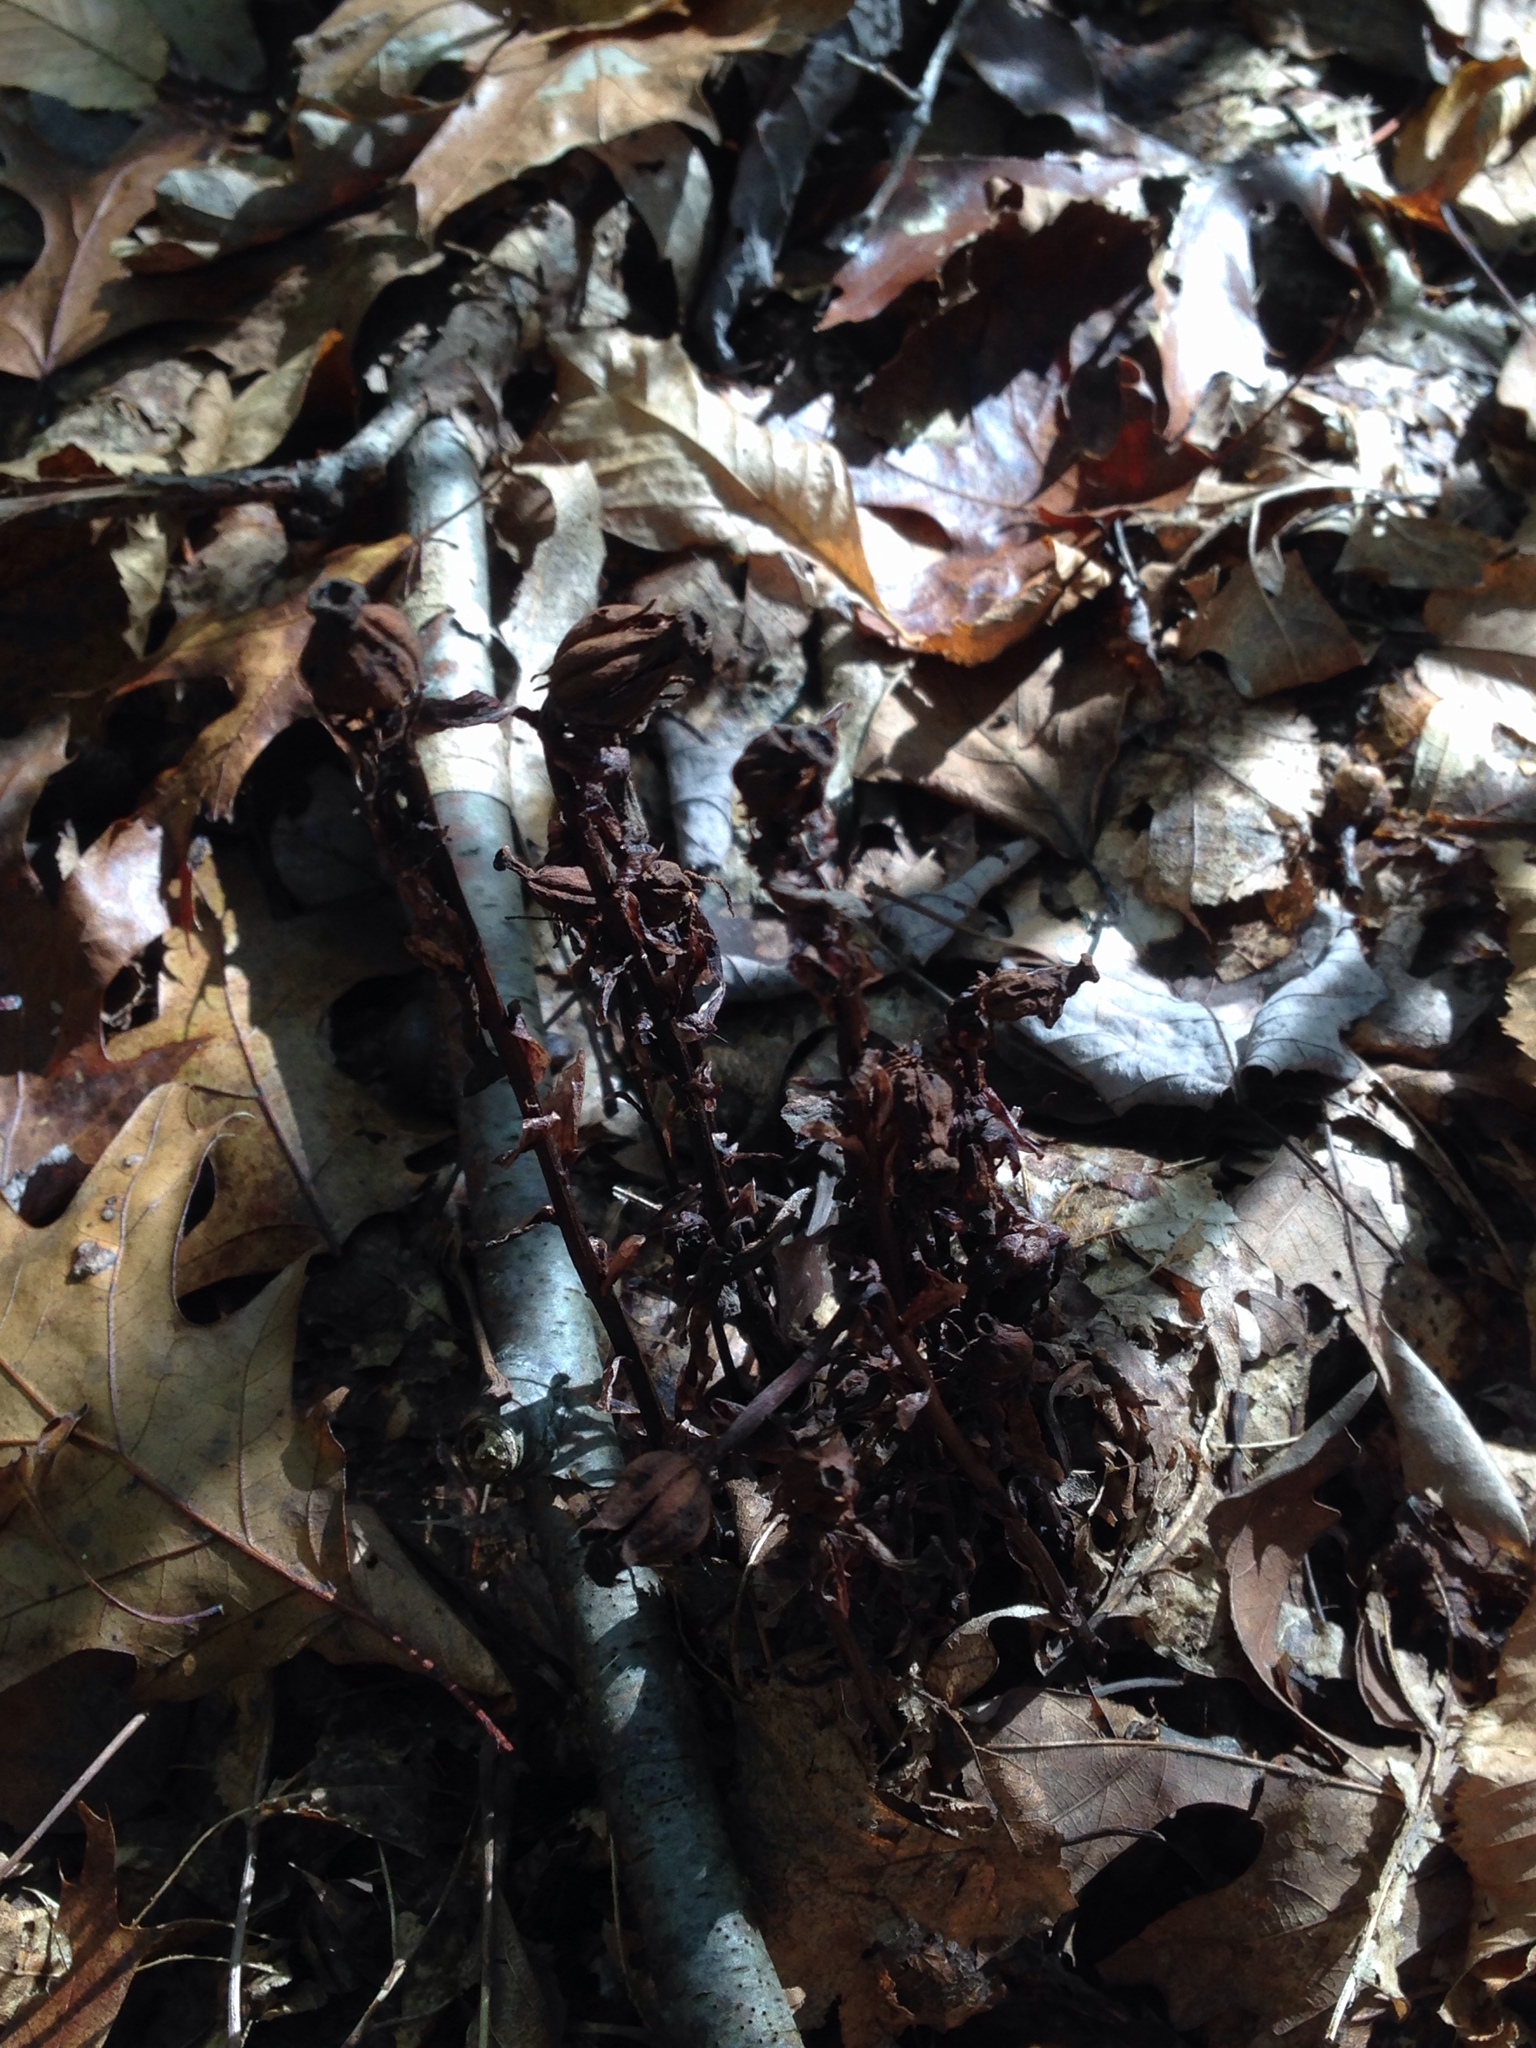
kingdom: Plantae
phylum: Tracheophyta
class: Magnoliopsida
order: Ericales
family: Ericaceae
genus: Monotropa
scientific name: Monotropa uniflora
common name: Convulsion root
